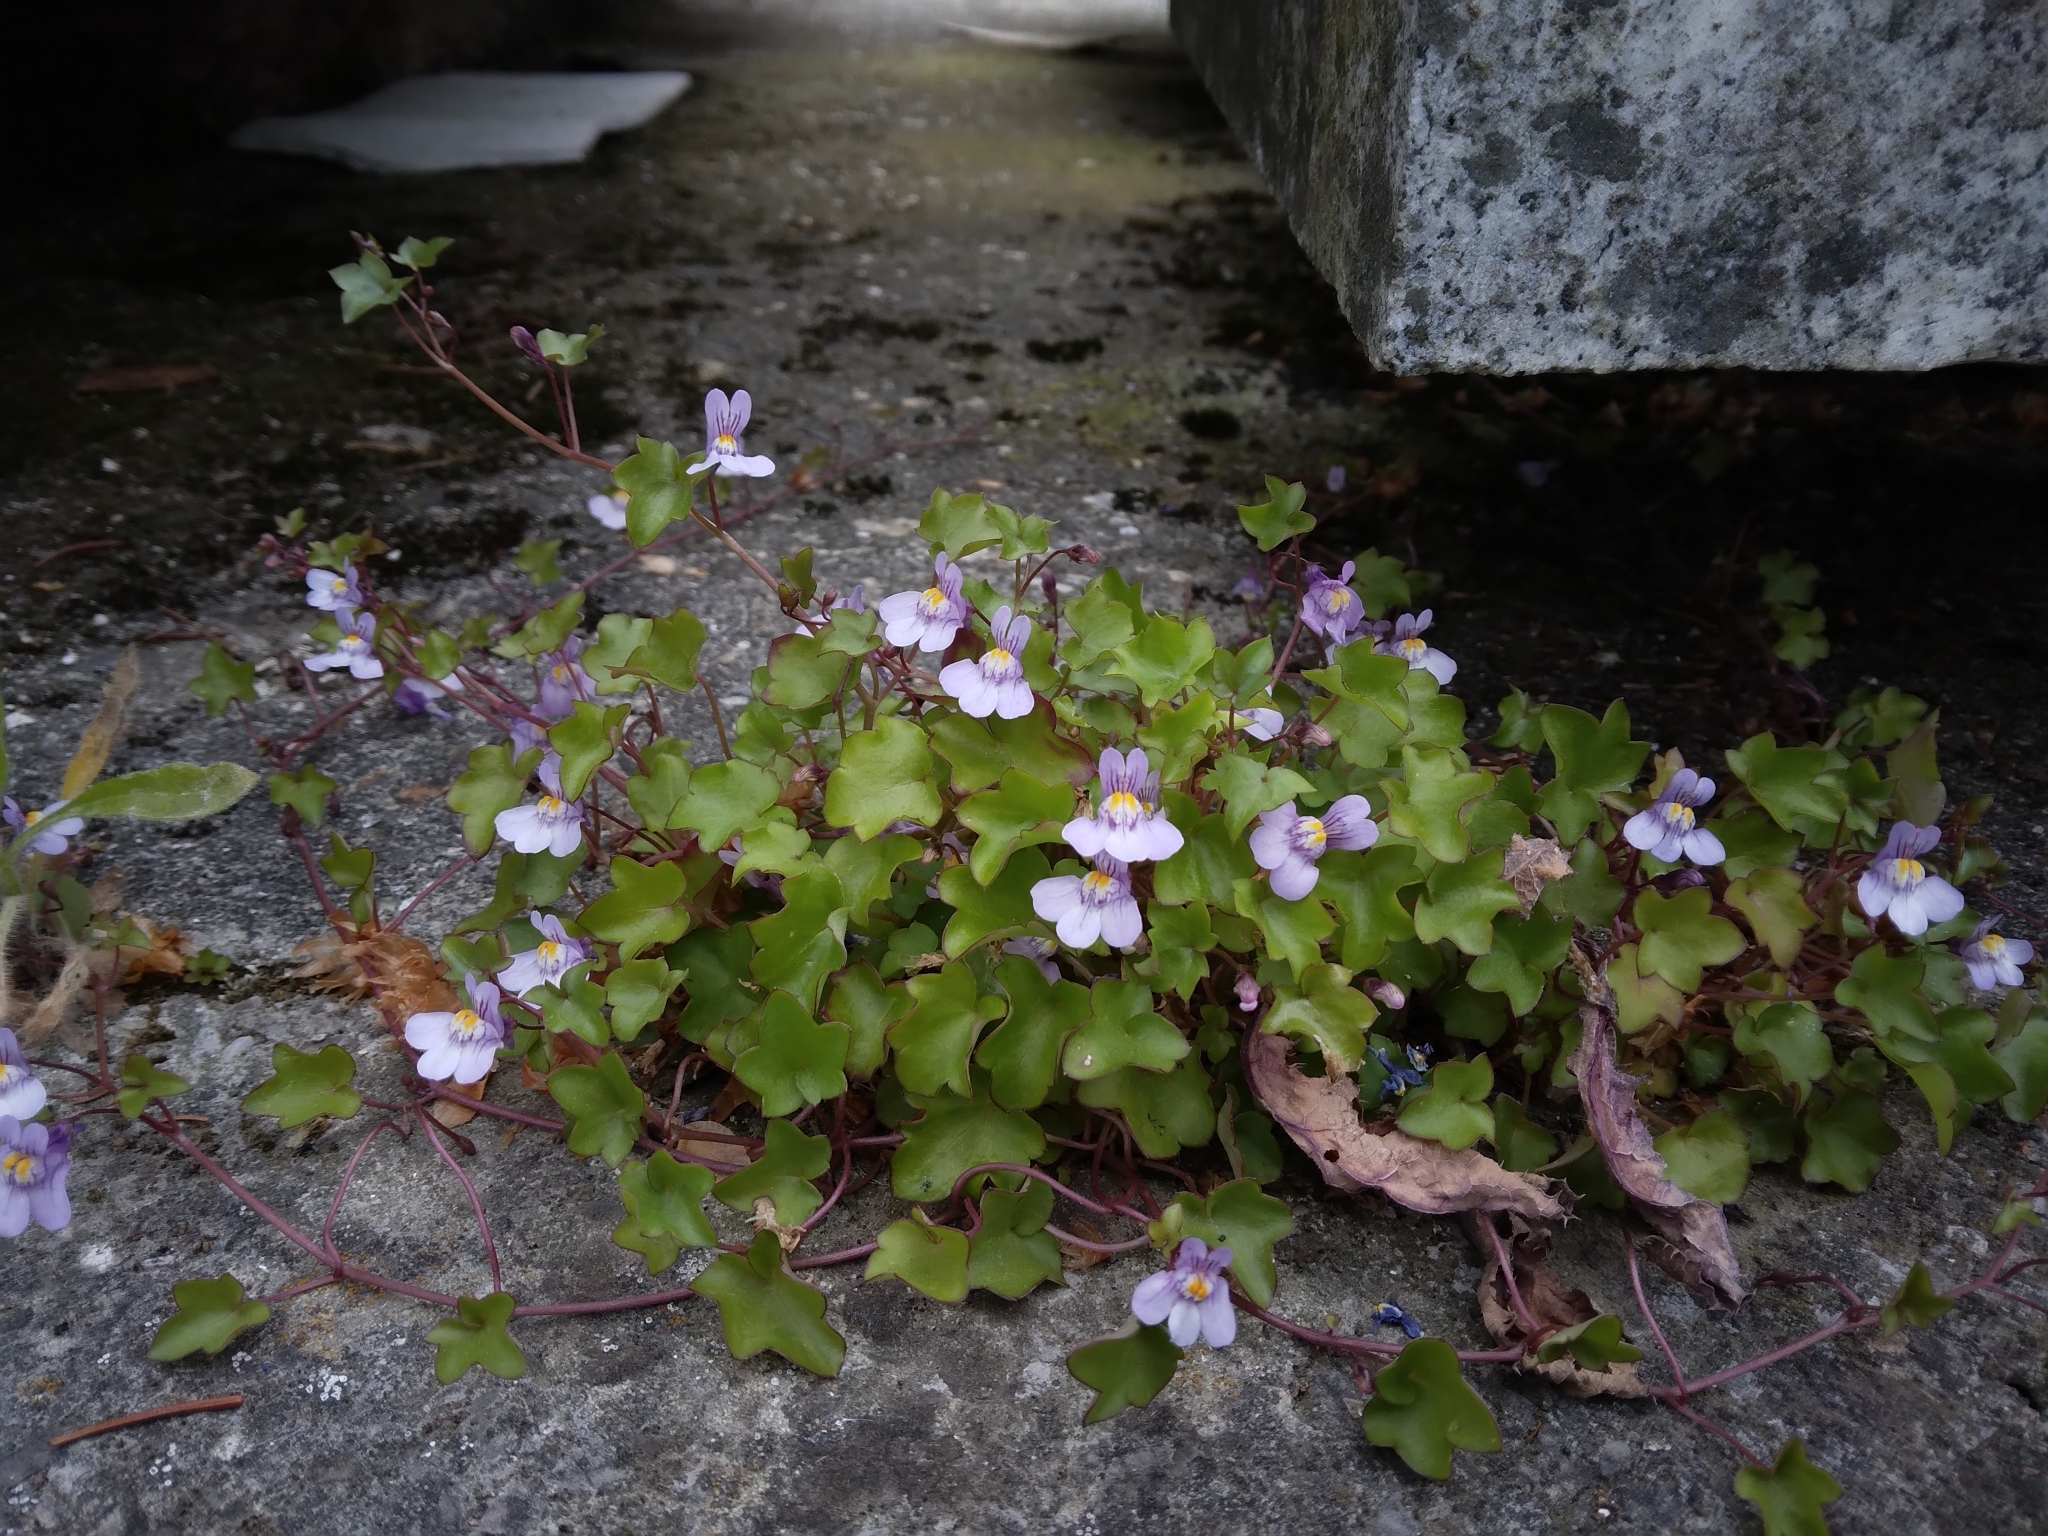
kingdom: Plantae
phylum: Tracheophyta
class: Magnoliopsida
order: Lamiales
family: Plantaginaceae
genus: Cymbalaria
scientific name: Cymbalaria muralis
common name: Ivy-leaved toadflax
